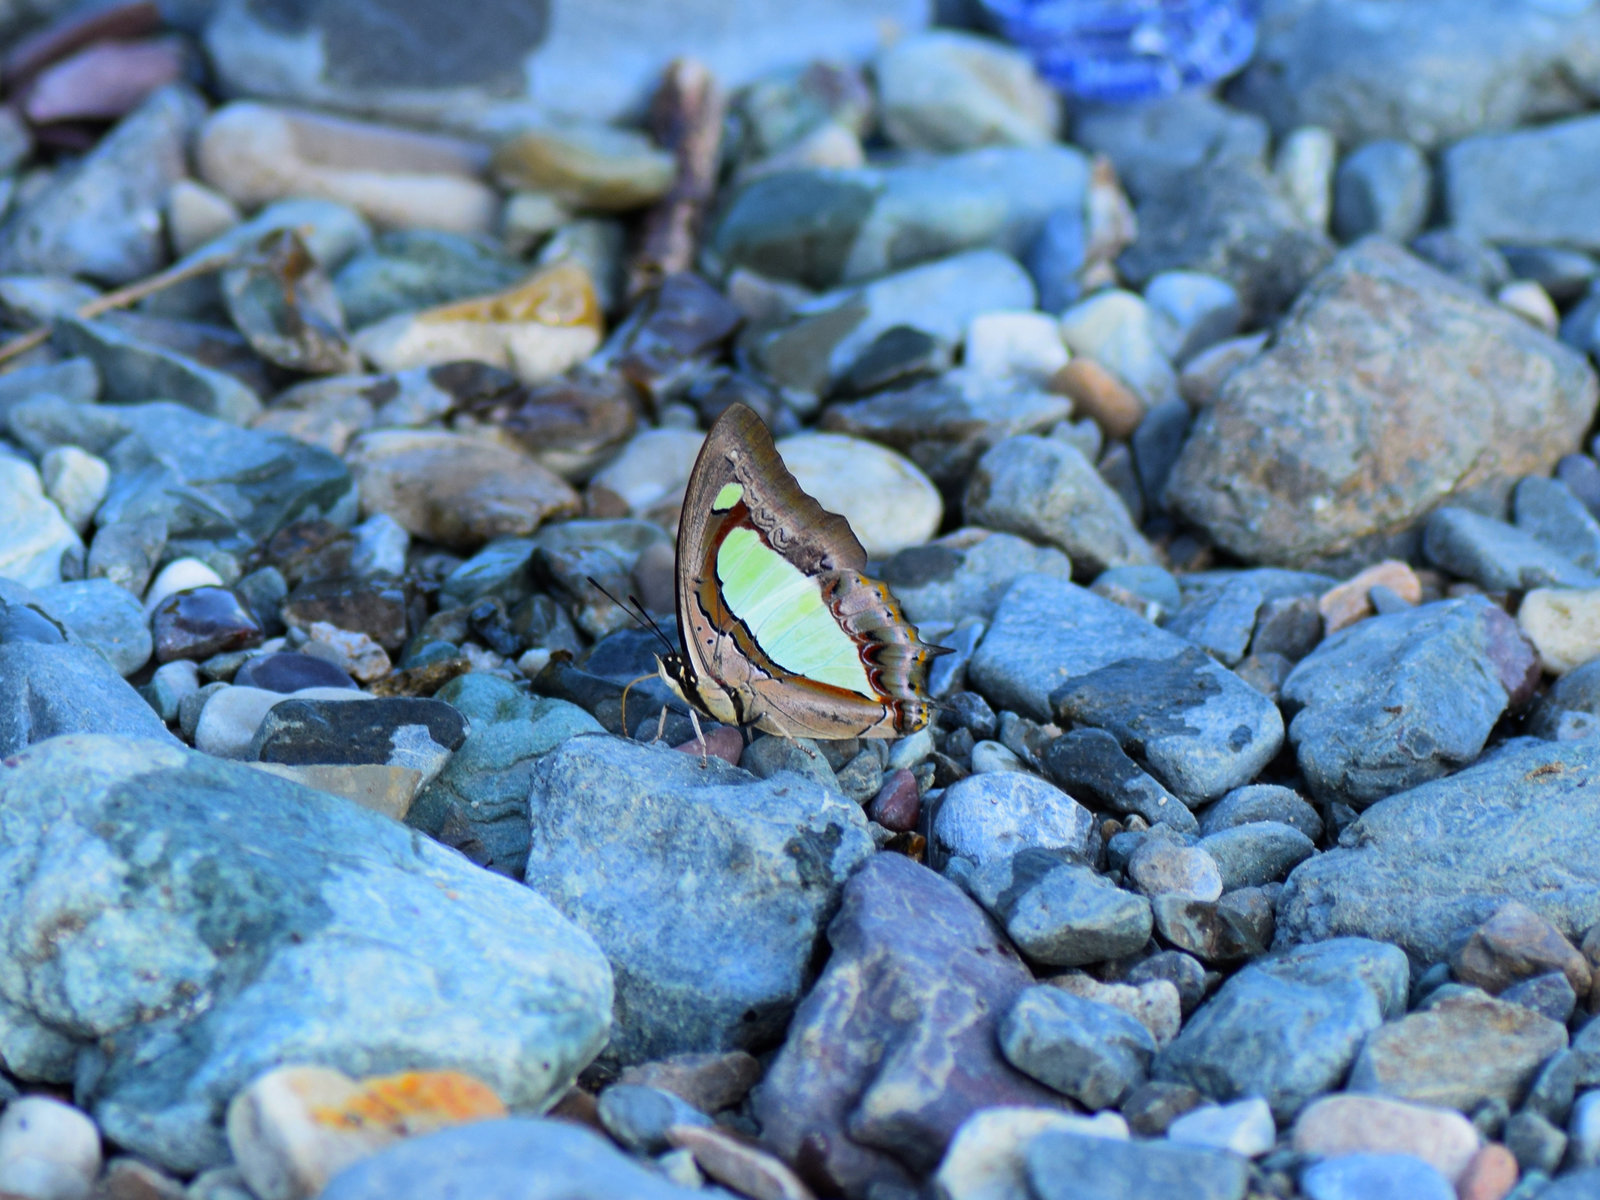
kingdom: Animalia
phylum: Arthropoda
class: Insecta
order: Lepidoptera
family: Nymphalidae
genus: Polyura
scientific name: Polyura
